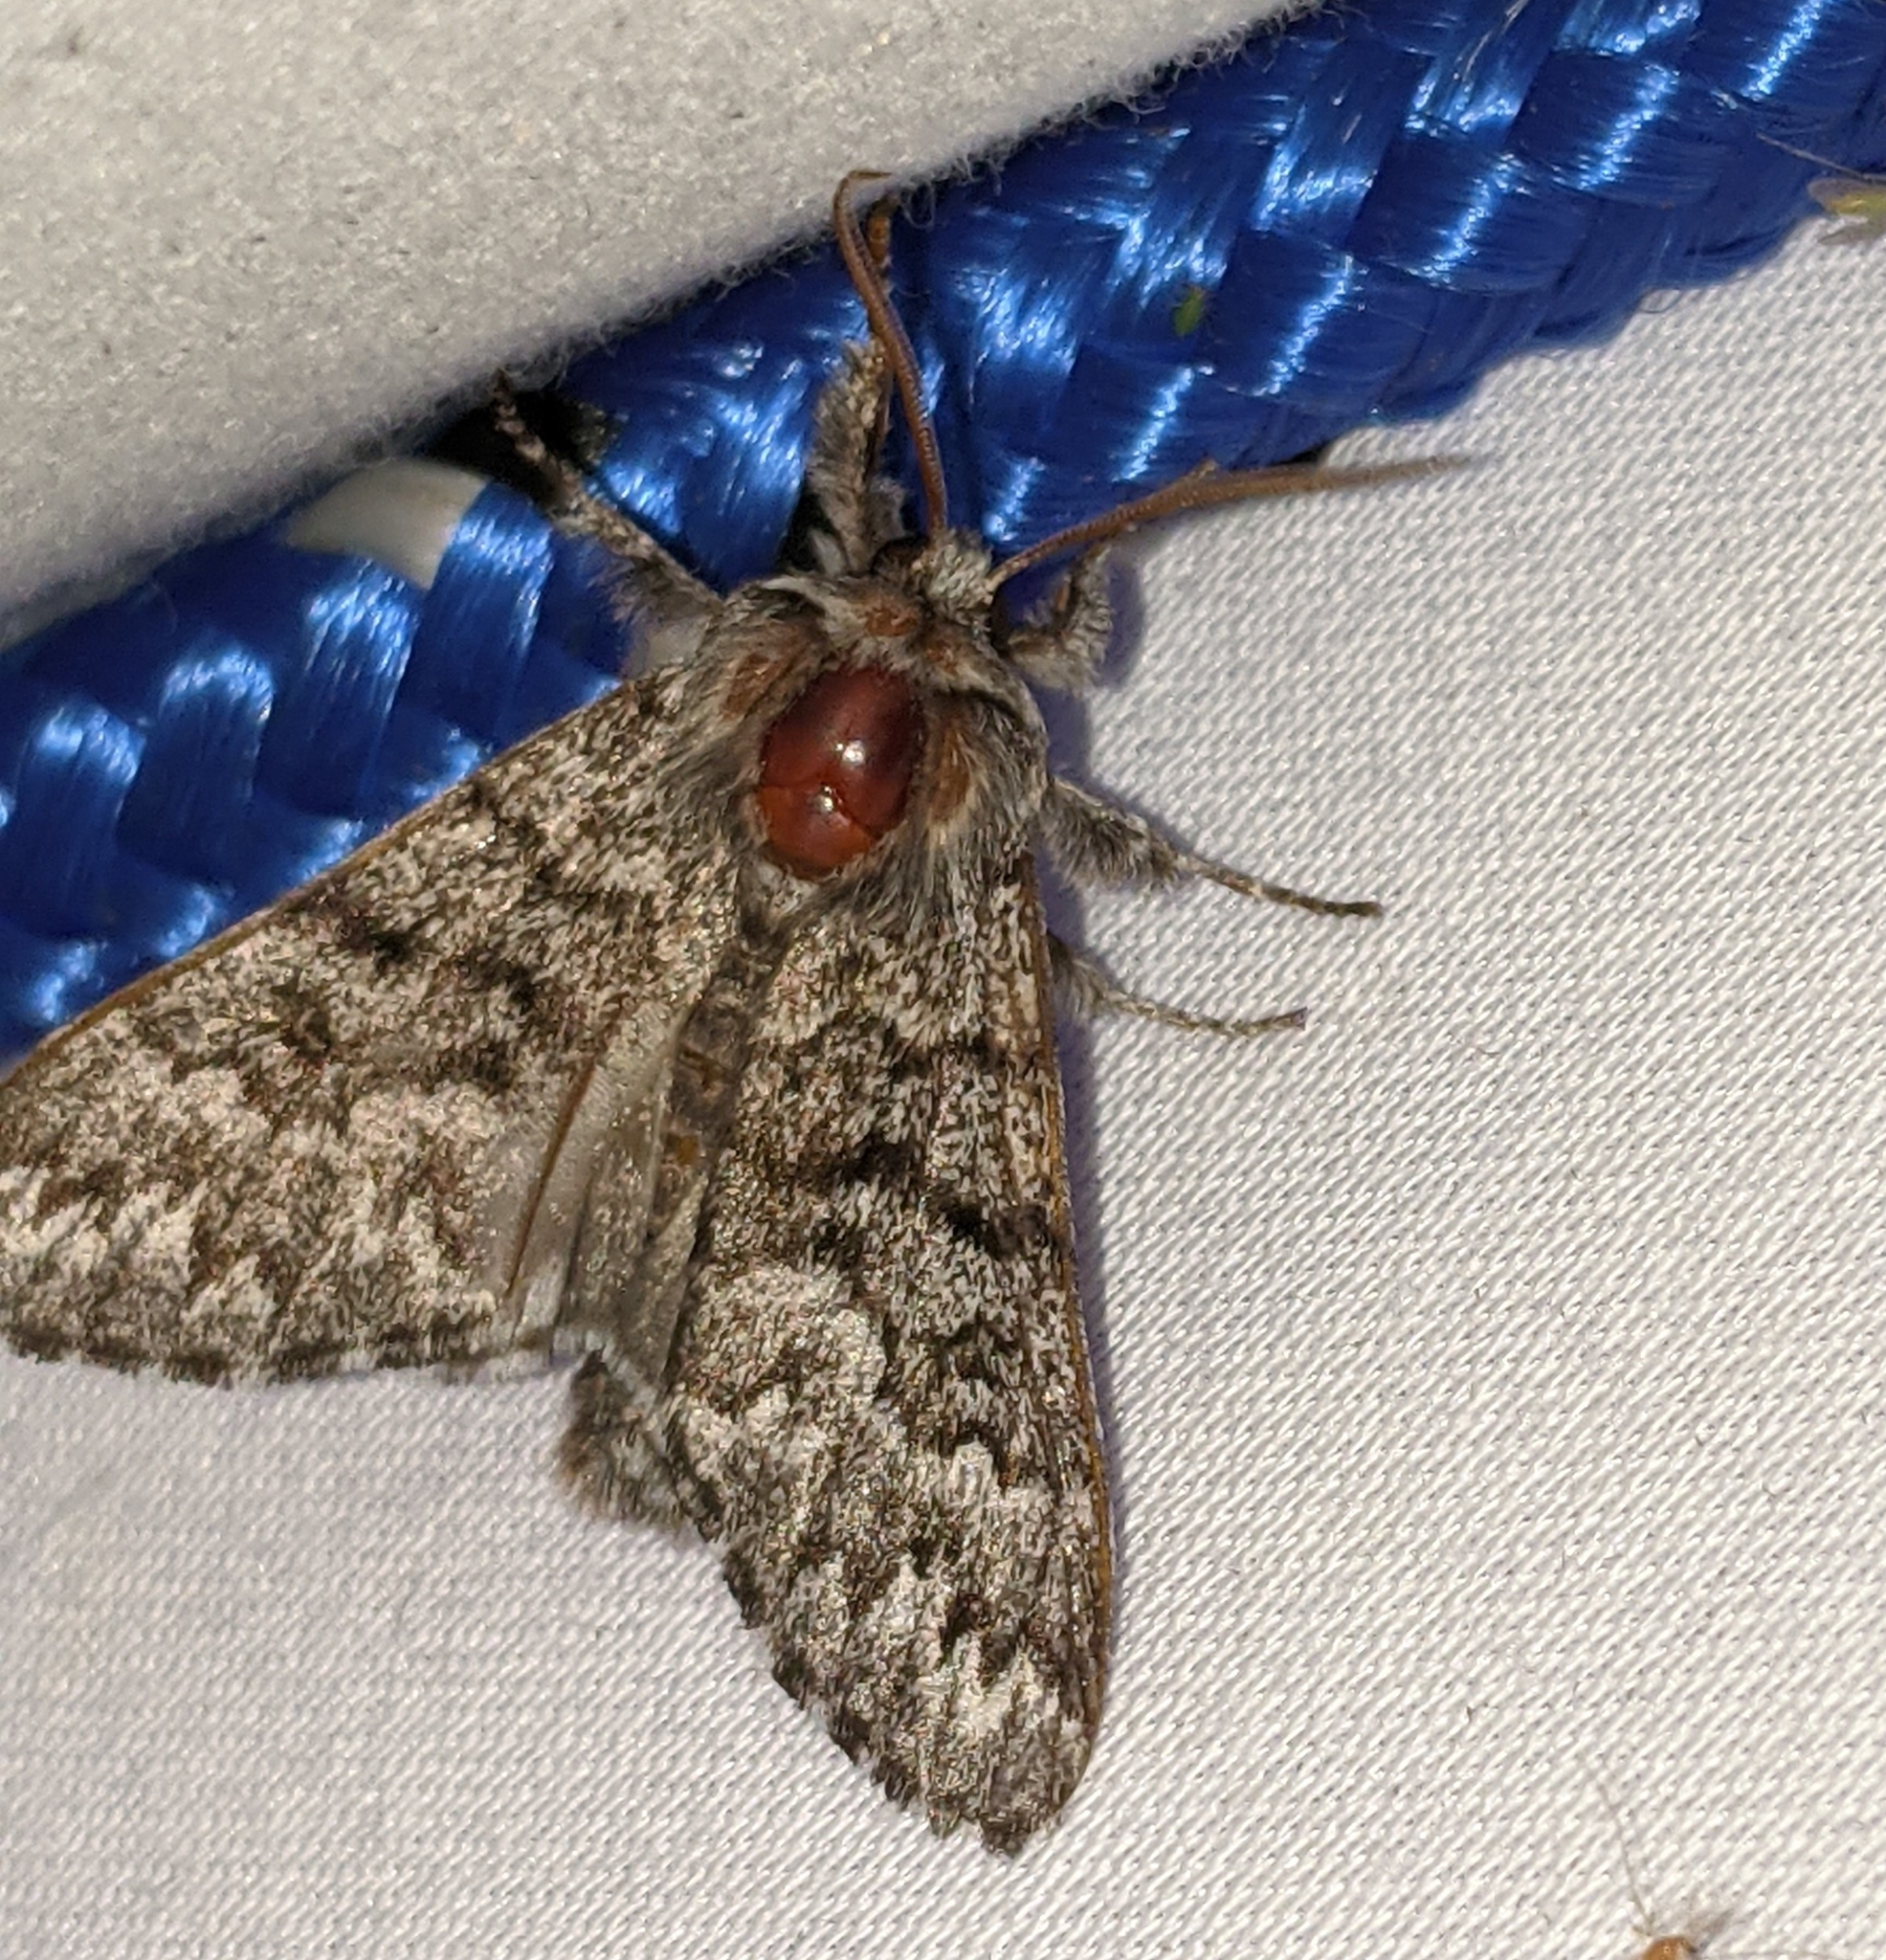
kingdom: Animalia
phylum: Arthropoda
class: Insecta
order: Lepidoptera
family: Noctuidae
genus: Panthea
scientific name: Panthea virginarius
